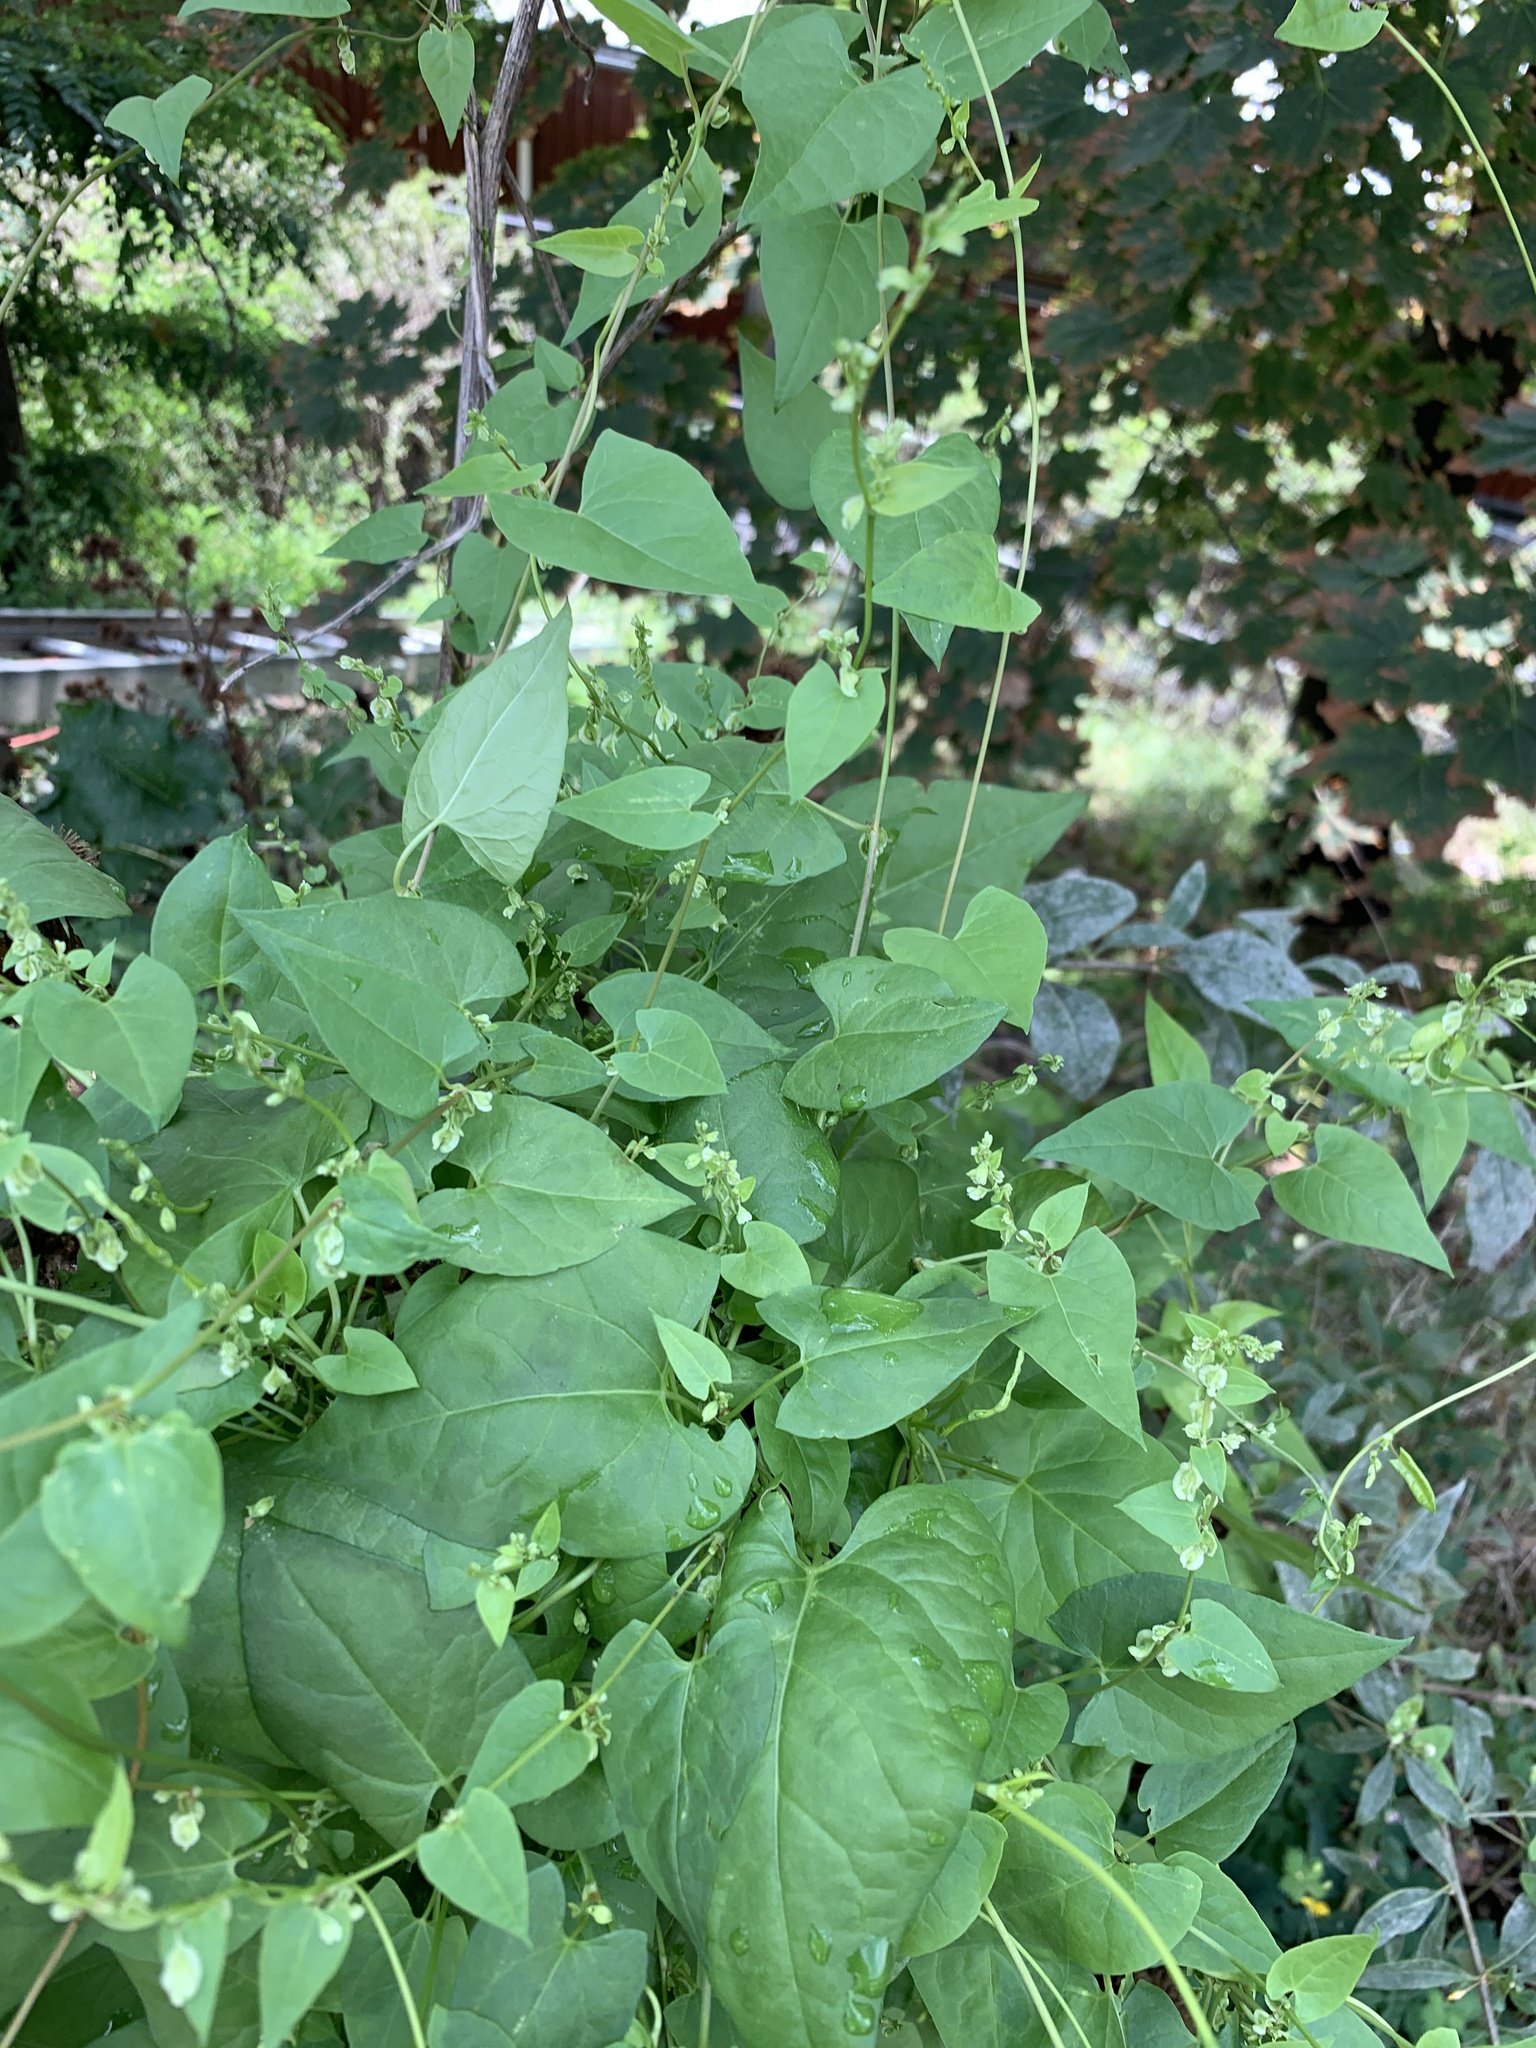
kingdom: Plantae
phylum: Tracheophyta
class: Magnoliopsida
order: Caryophyllales
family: Polygonaceae
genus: Fallopia
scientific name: Fallopia dumetorum
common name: Copse-bindweed
